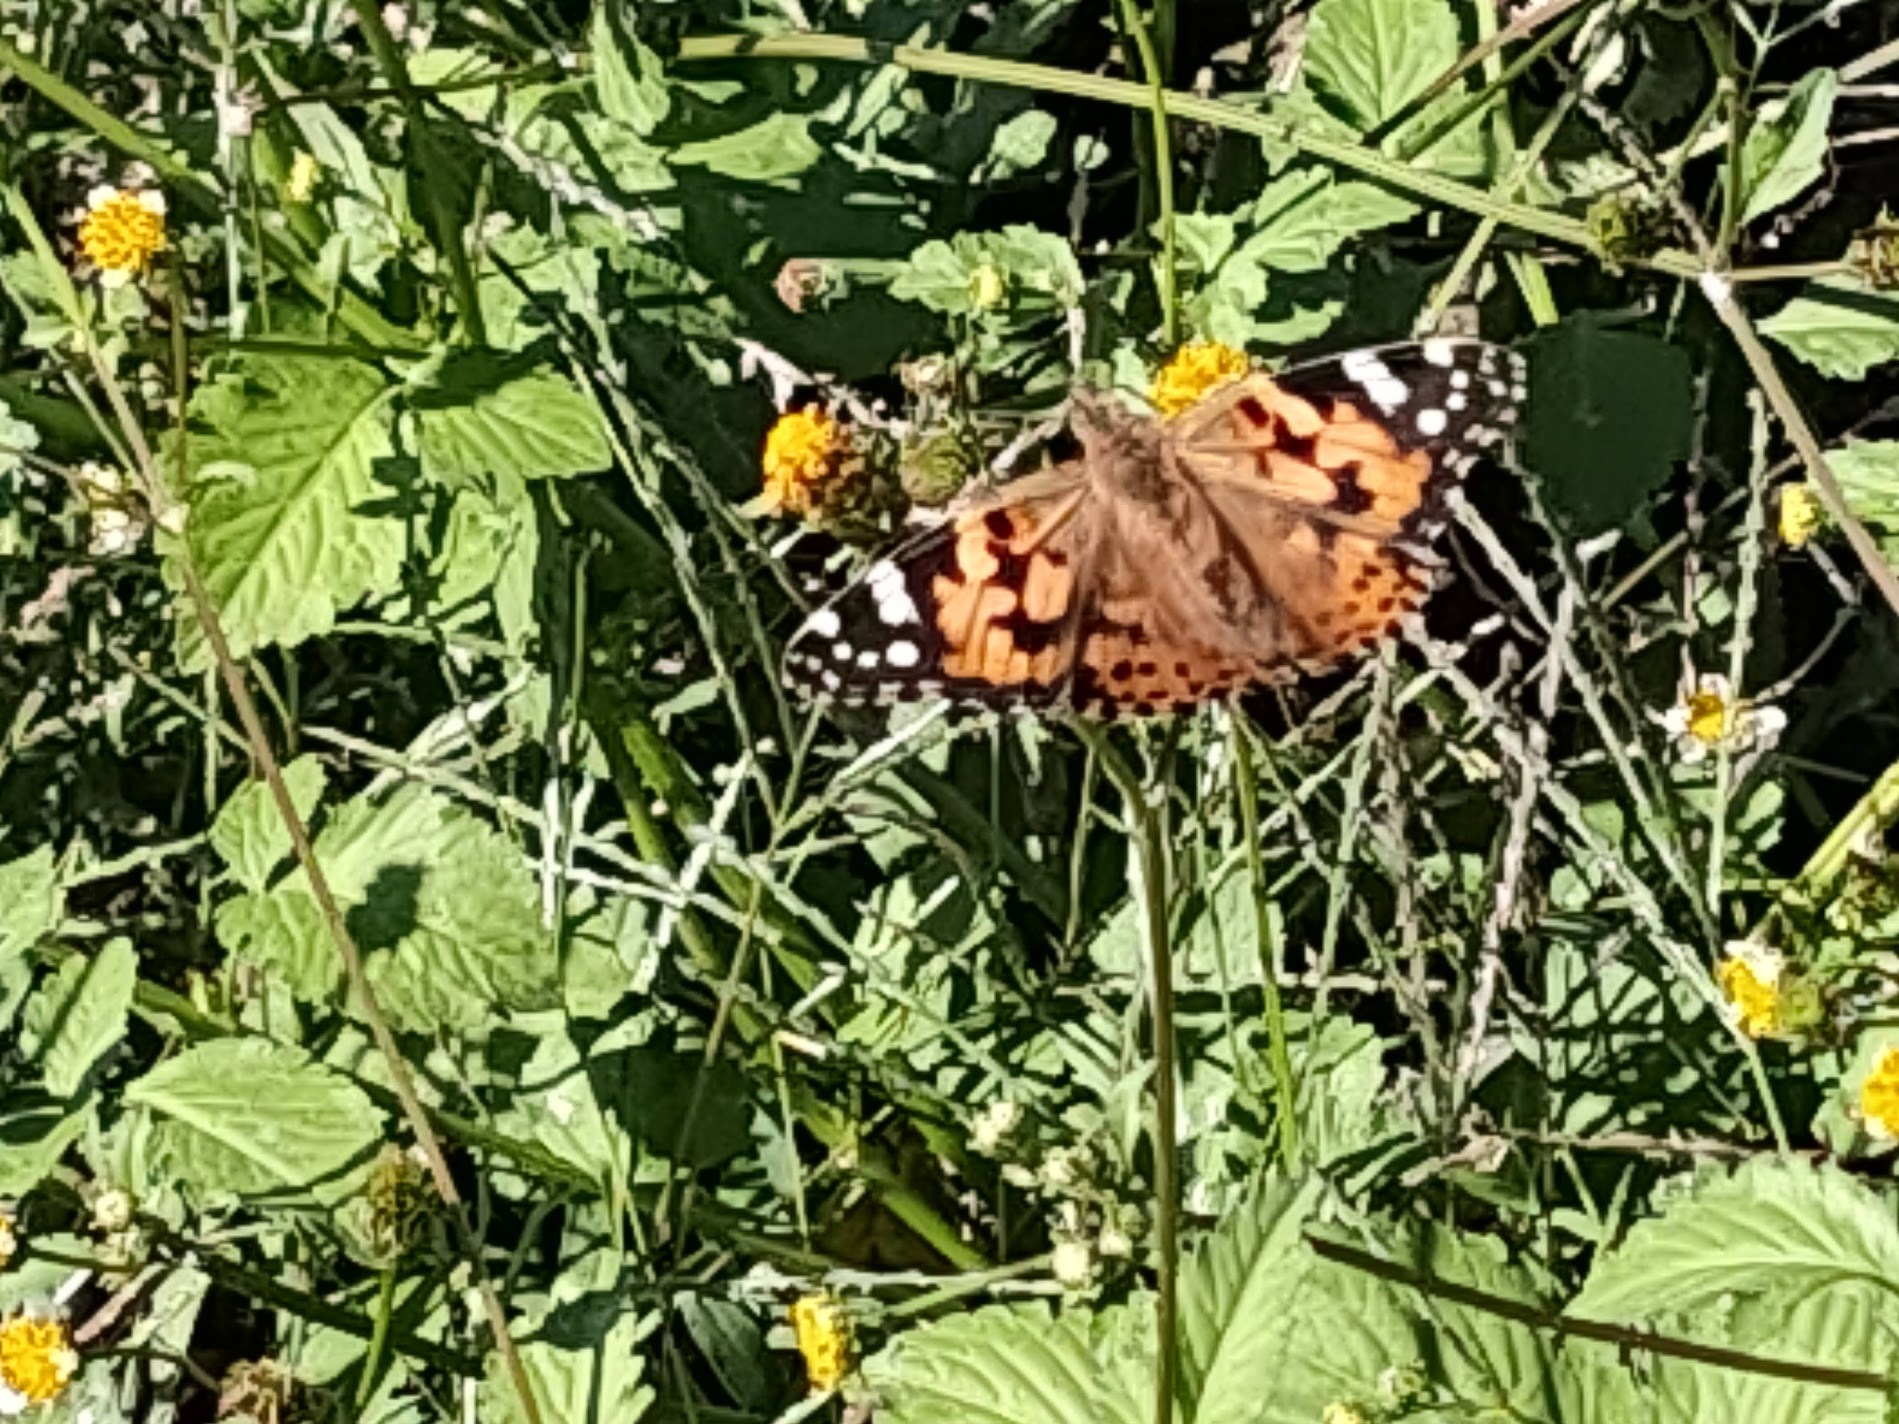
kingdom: Animalia
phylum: Arthropoda
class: Insecta
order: Lepidoptera
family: Nymphalidae
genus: Vanessa
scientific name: Vanessa cardui
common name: Painted lady
